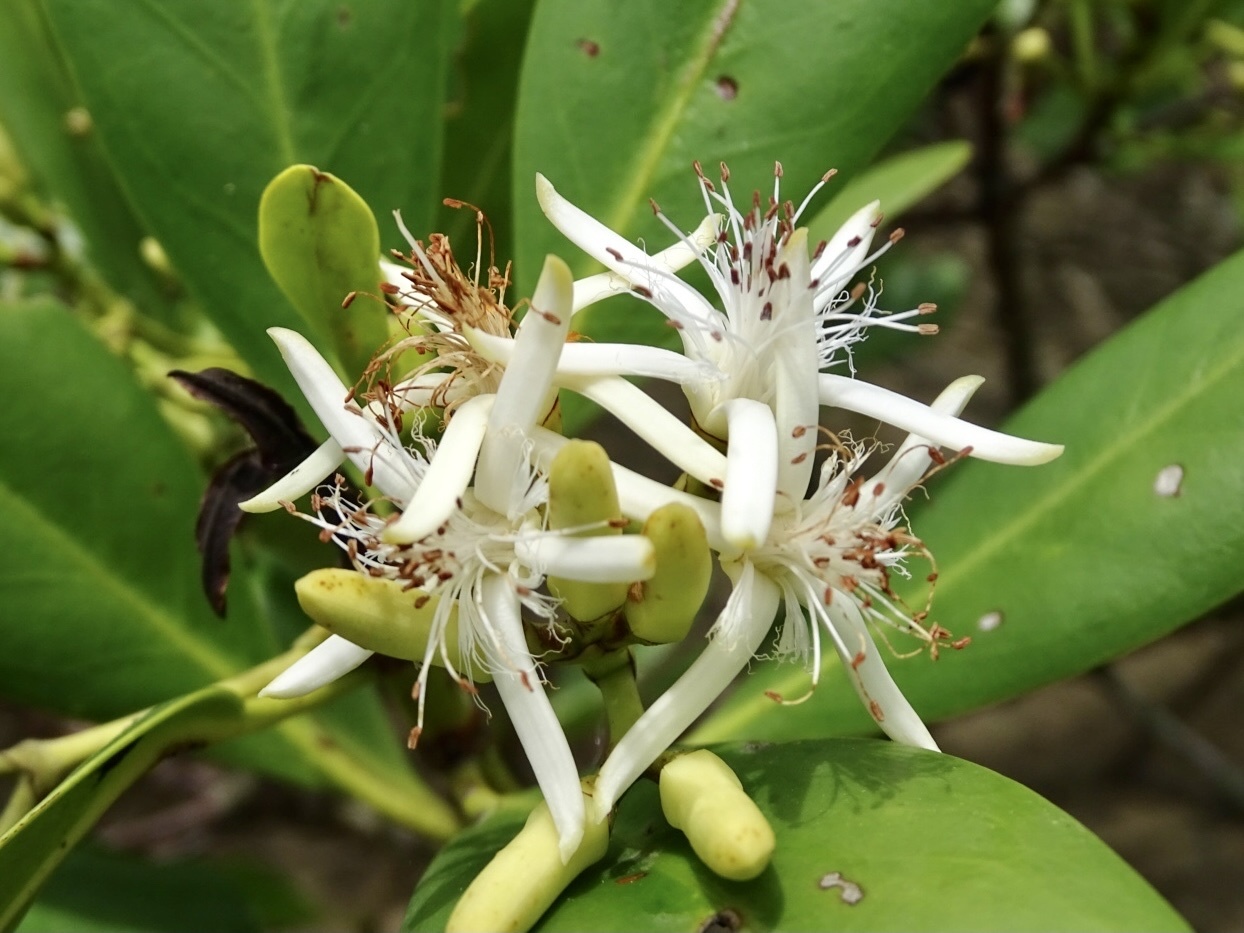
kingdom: Plantae
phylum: Tracheophyta
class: Magnoliopsida
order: Malpighiales
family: Rhizophoraceae
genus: Kandelia
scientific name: Kandelia obovata
